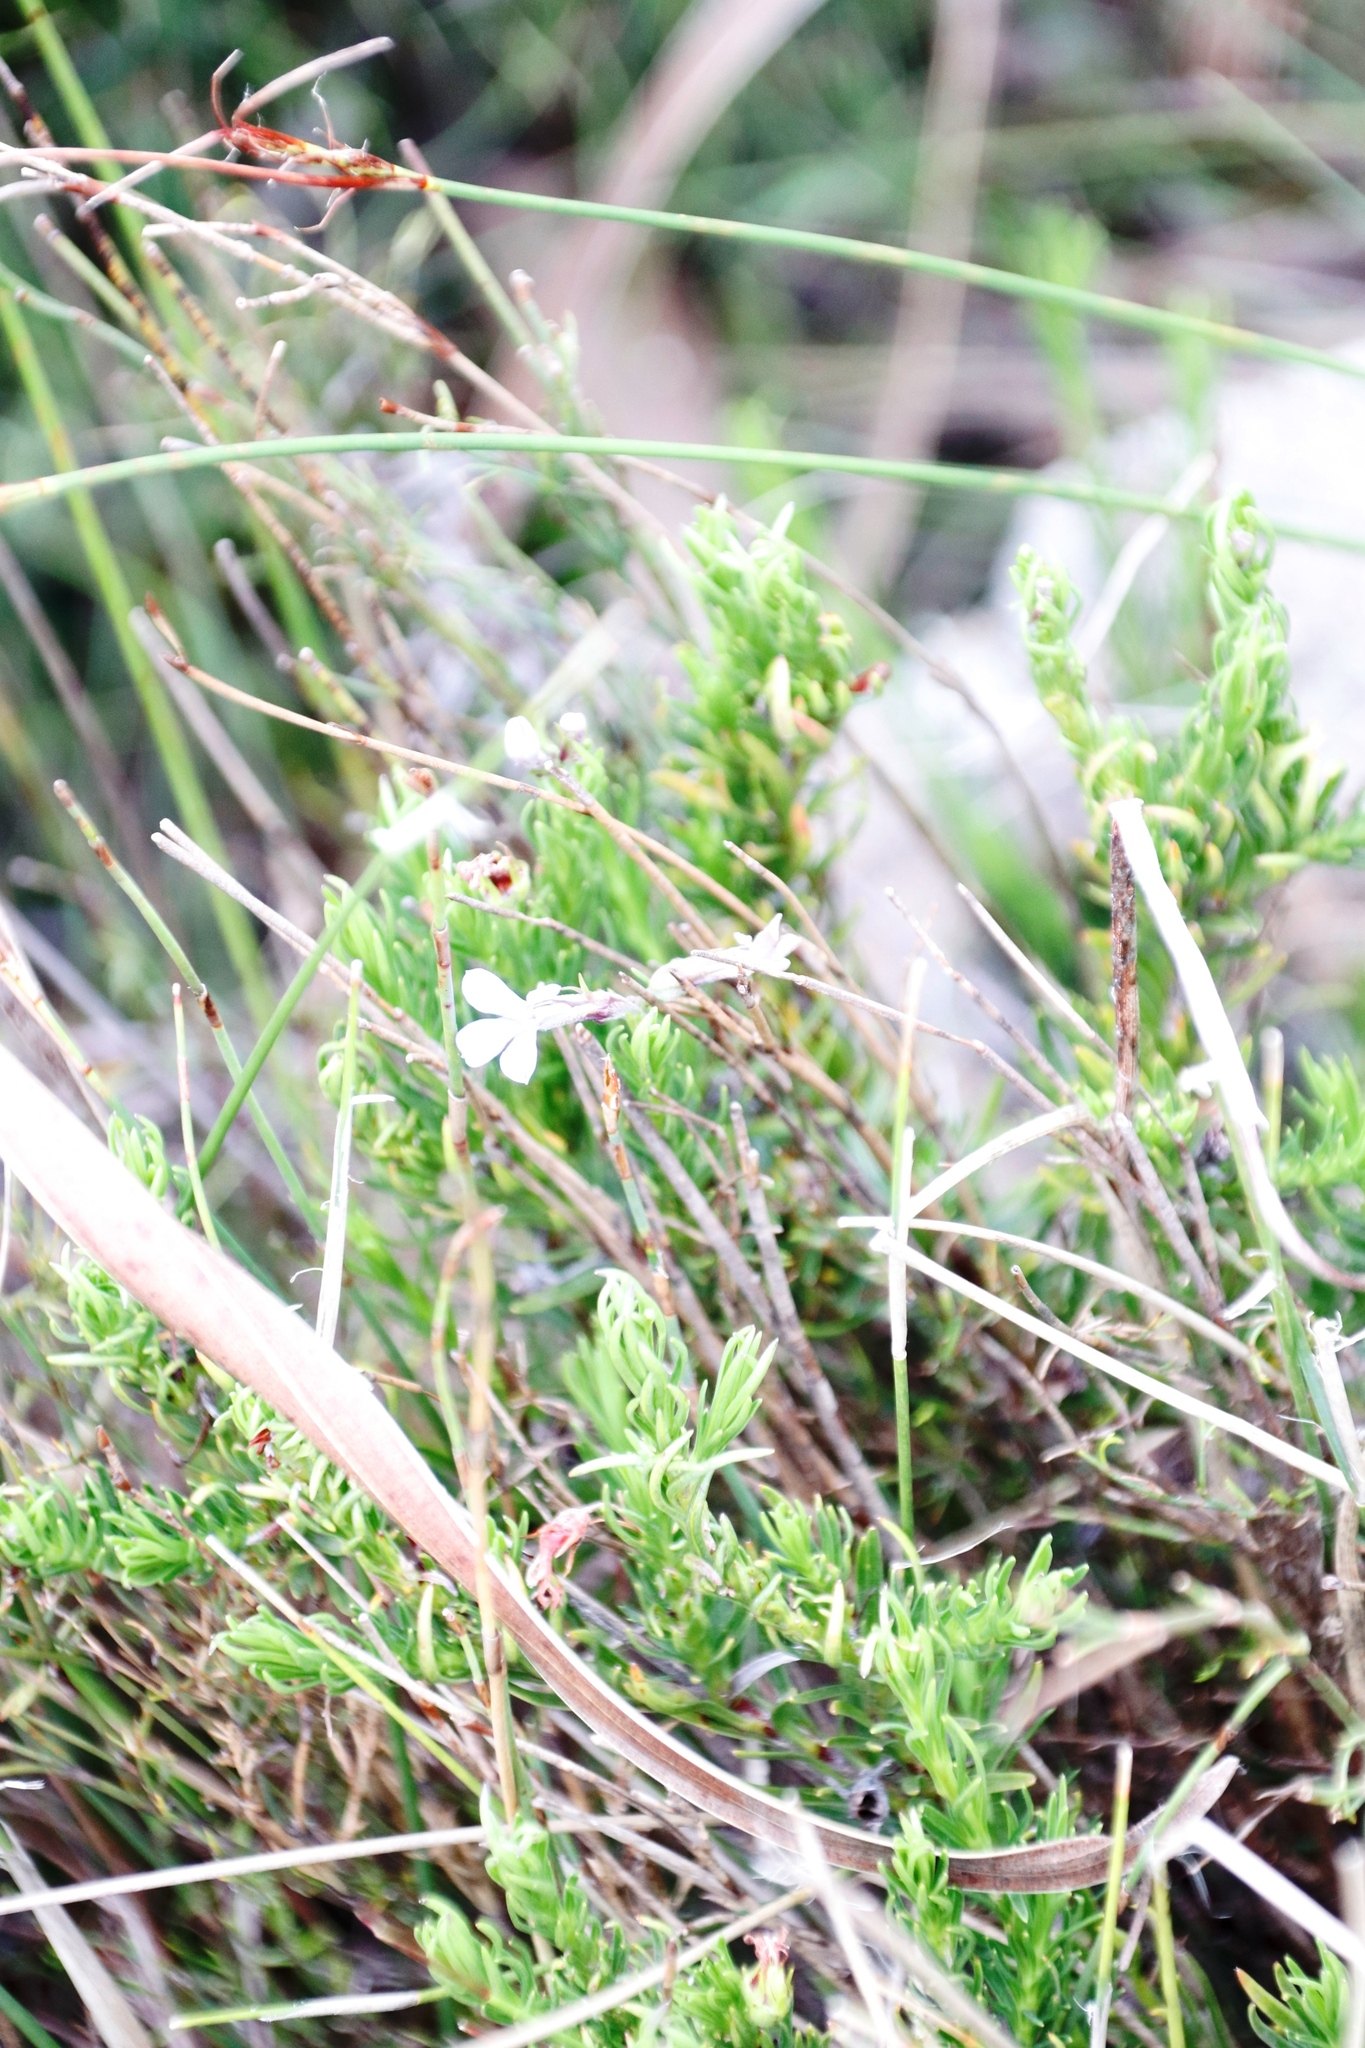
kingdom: Plantae
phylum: Tracheophyta
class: Magnoliopsida
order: Asterales
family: Campanulaceae
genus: Lobelia
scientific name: Lobelia pinifolia
